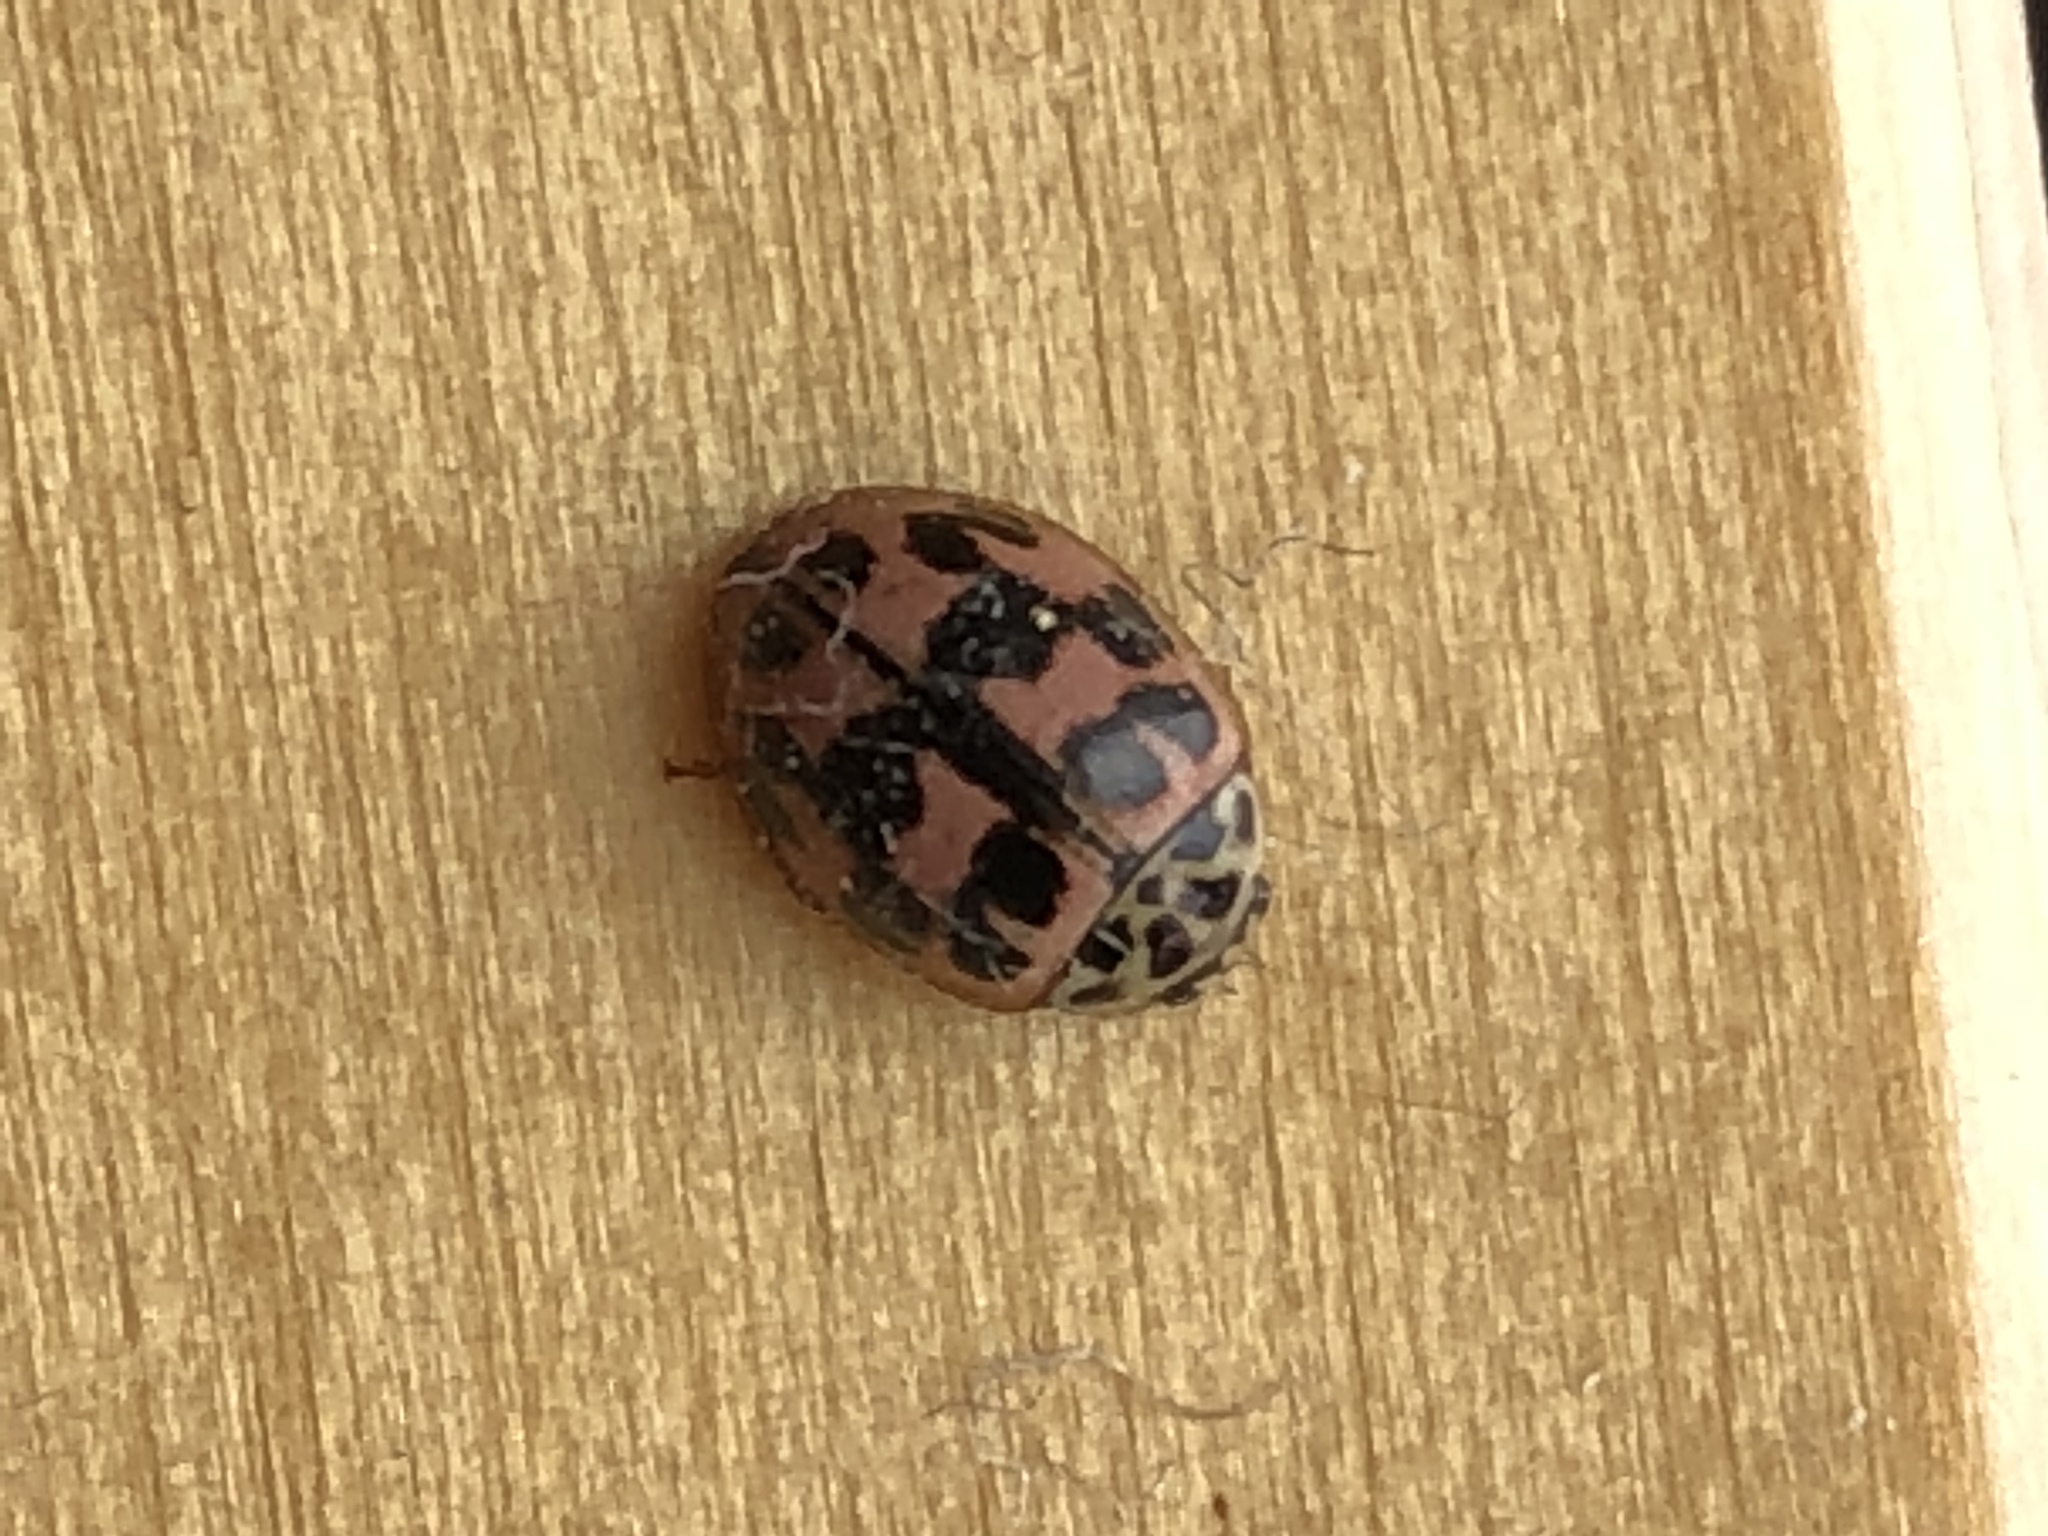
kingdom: Animalia
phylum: Arthropoda
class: Insecta
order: Coleoptera
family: Coccinellidae
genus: Oenopia
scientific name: Oenopia conglobata
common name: Ladybird beetle
